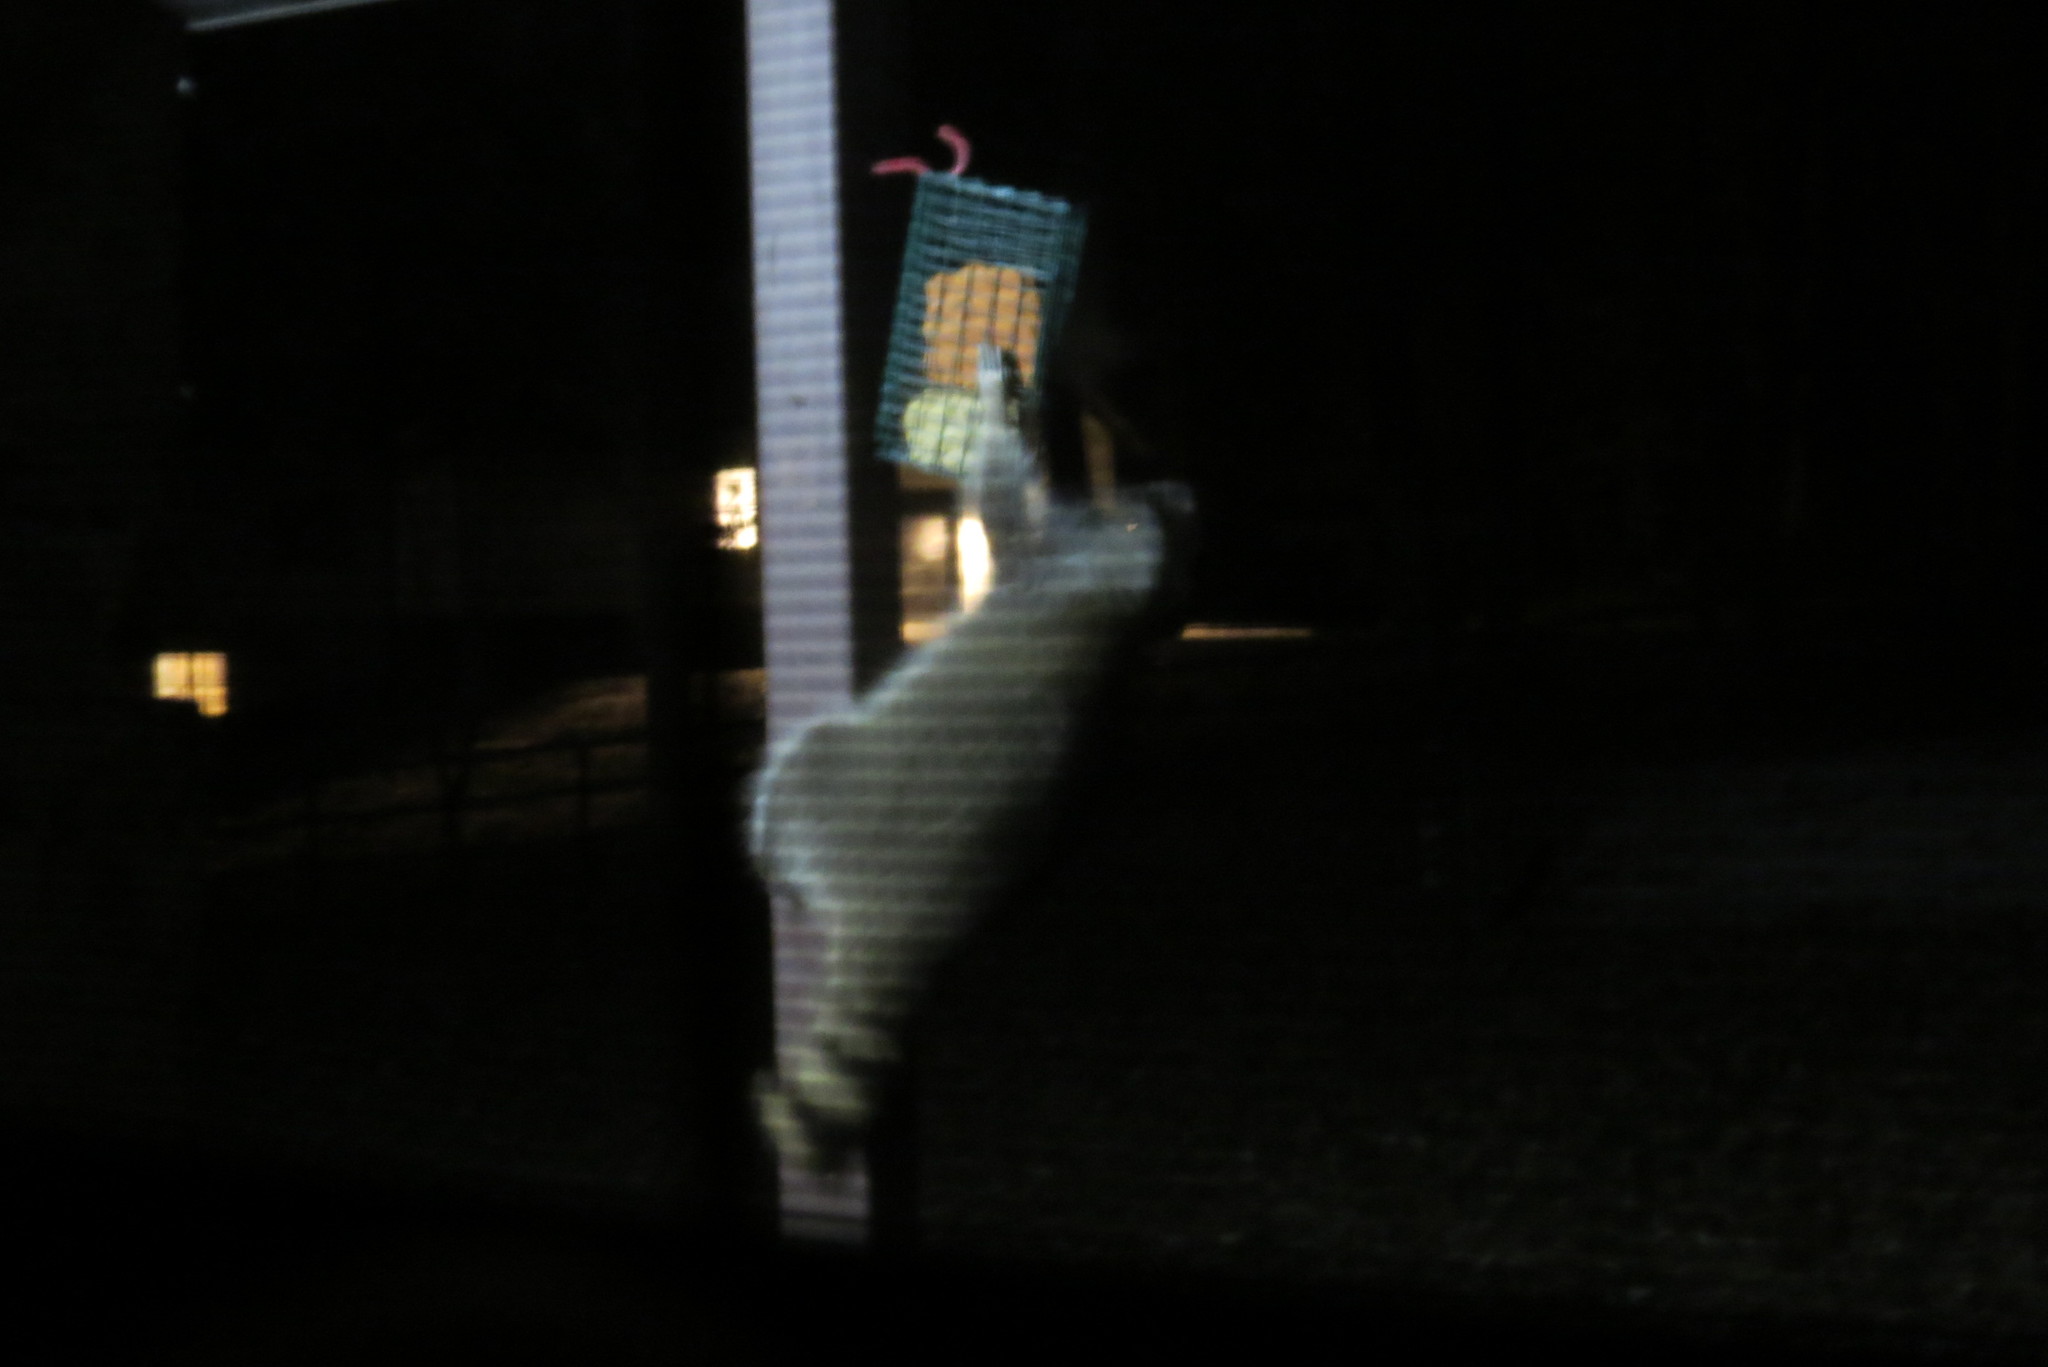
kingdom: Animalia
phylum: Chordata
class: Mammalia
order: Carnivora
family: Procyonidae
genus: Procyon
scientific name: Procyon lotor
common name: Raccoon
